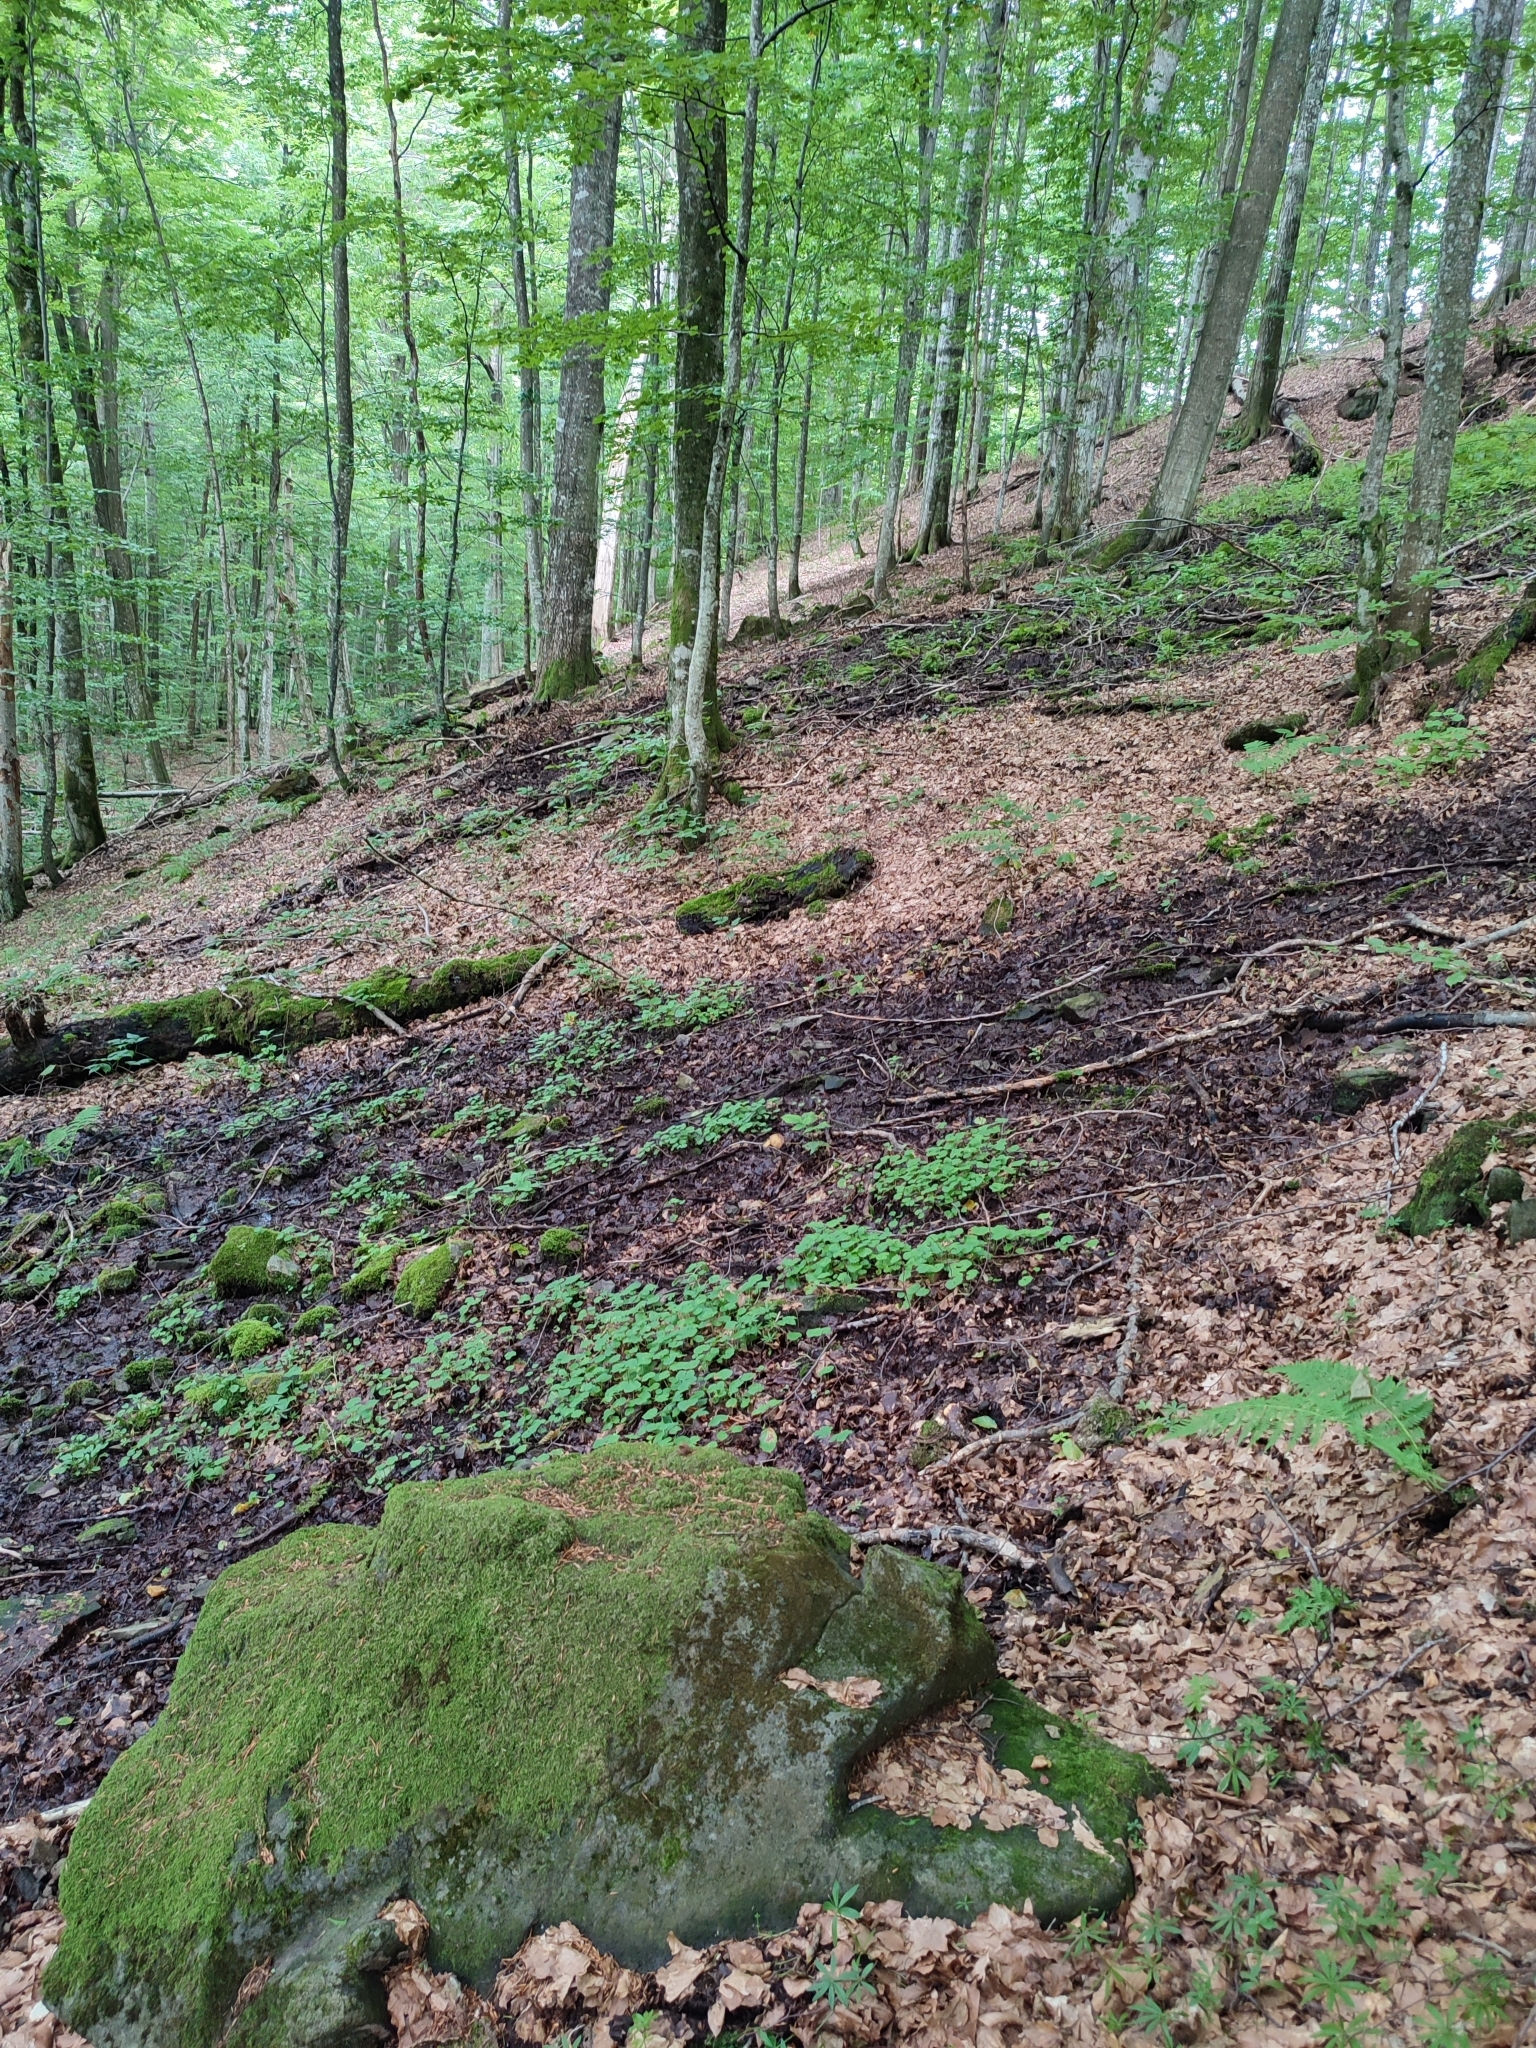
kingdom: Plantae
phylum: Tracheophyta
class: Magnoliopsida
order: Fagales
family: Fagaceae
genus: Fagus
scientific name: Fagus sylvatica
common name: Beech
